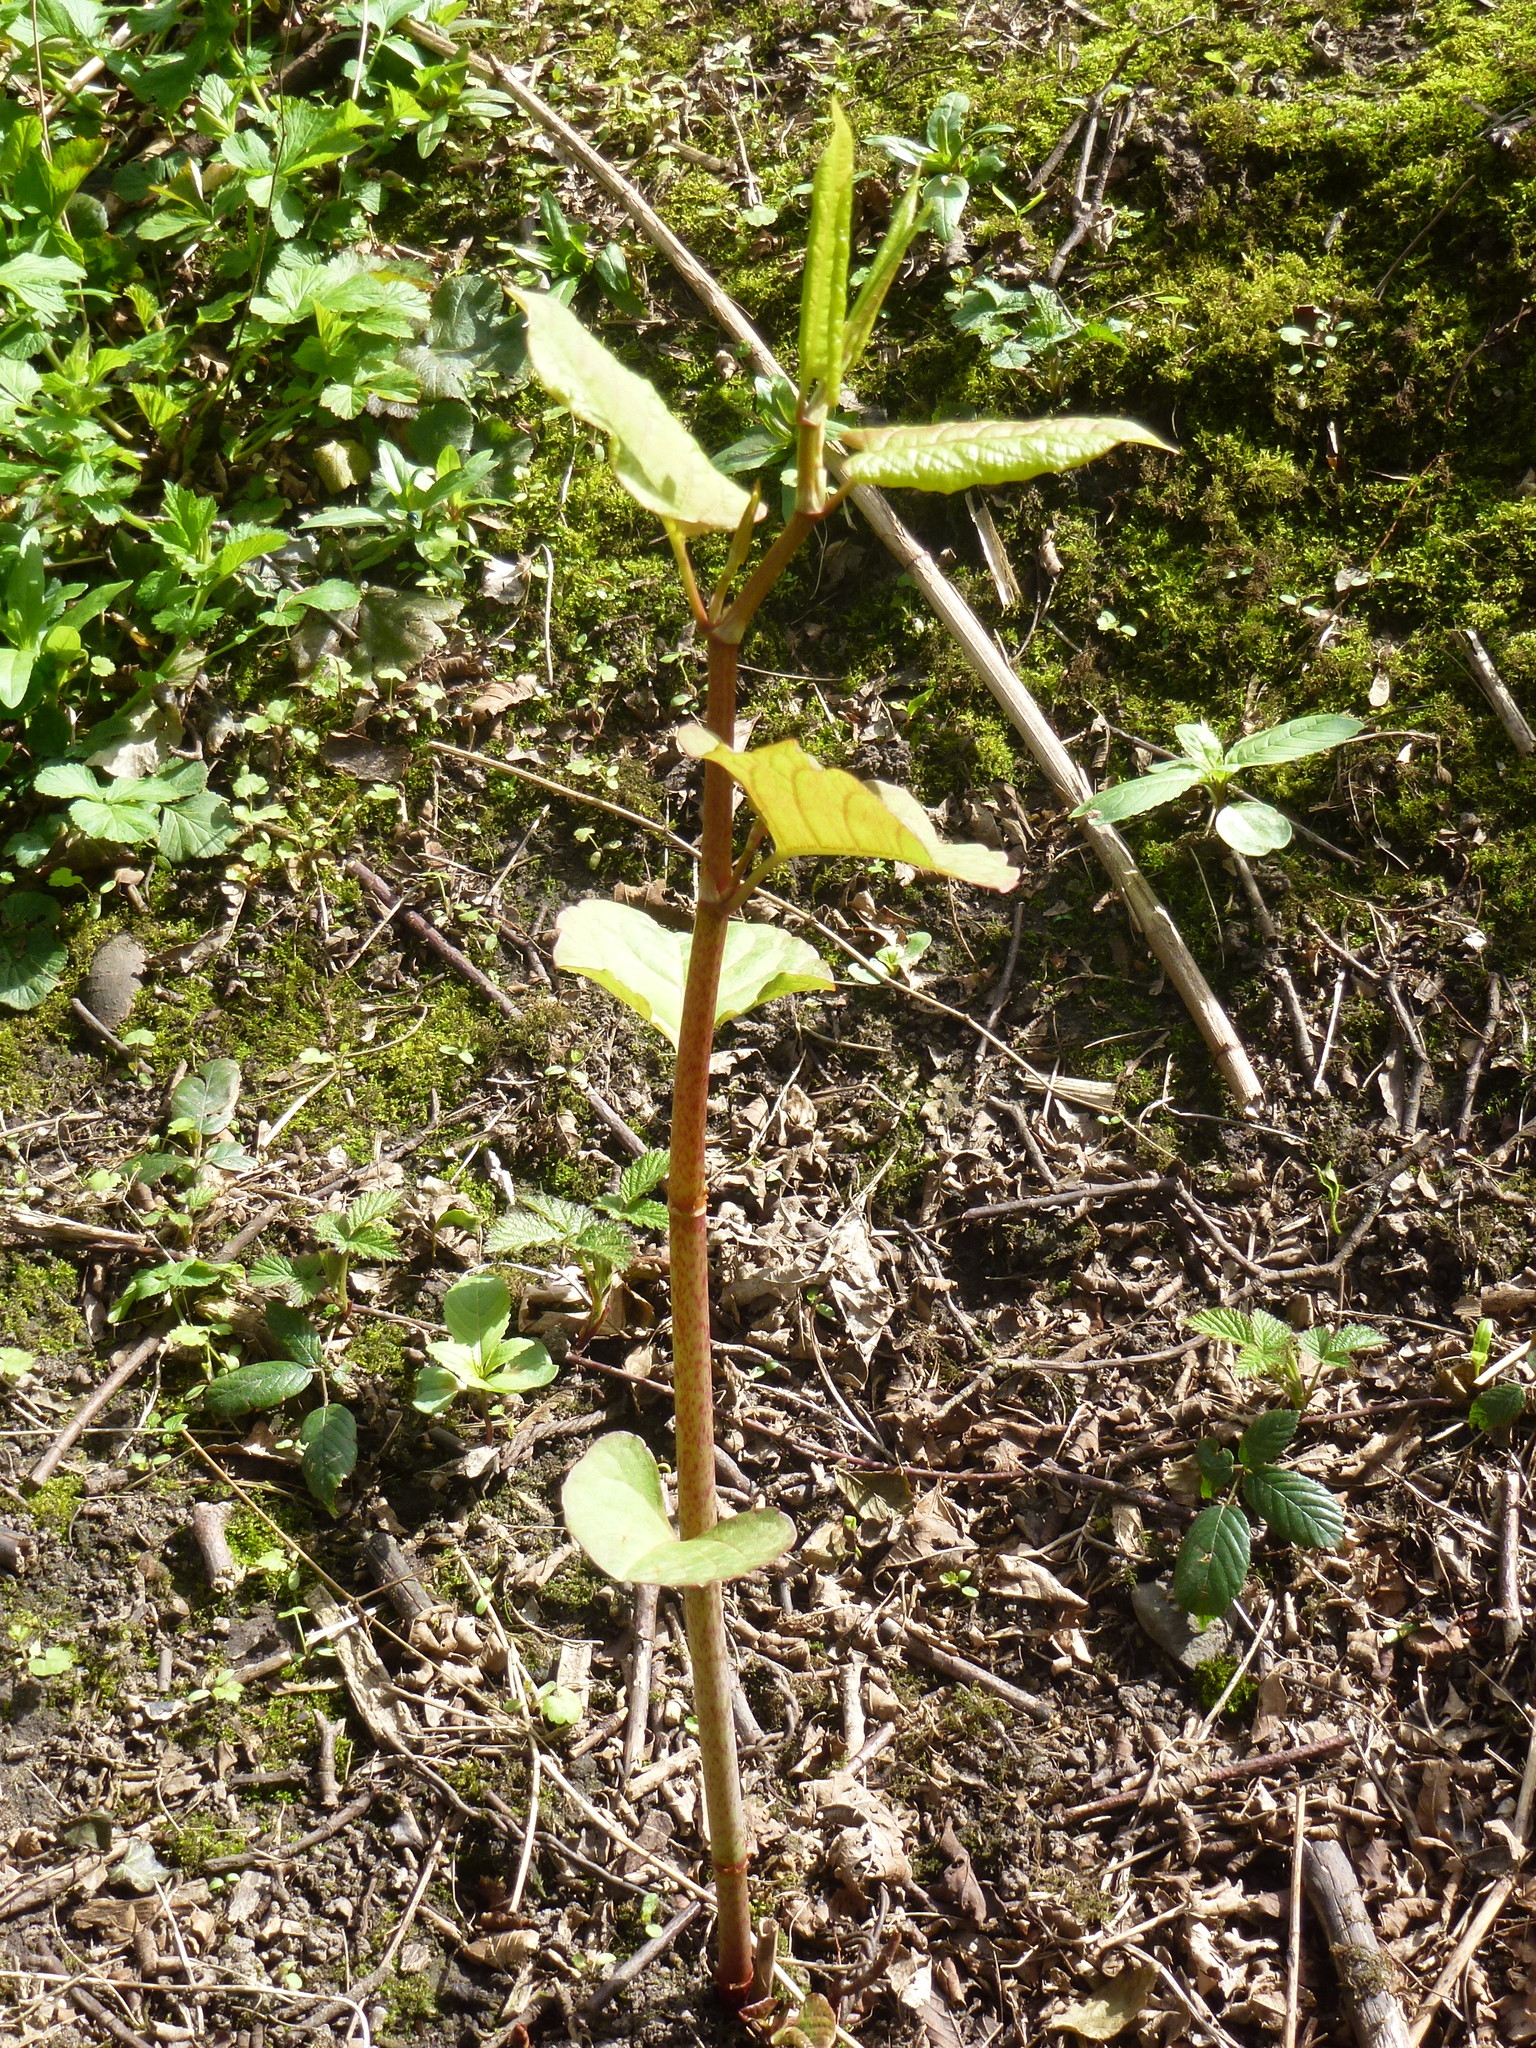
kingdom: Plantae
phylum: Tracheophyta
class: Magnoliopsida
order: Caryophyllales
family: Polygonaceae
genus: Reynoutria
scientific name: Reynoutria bohemica
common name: Bohemian knotweed
